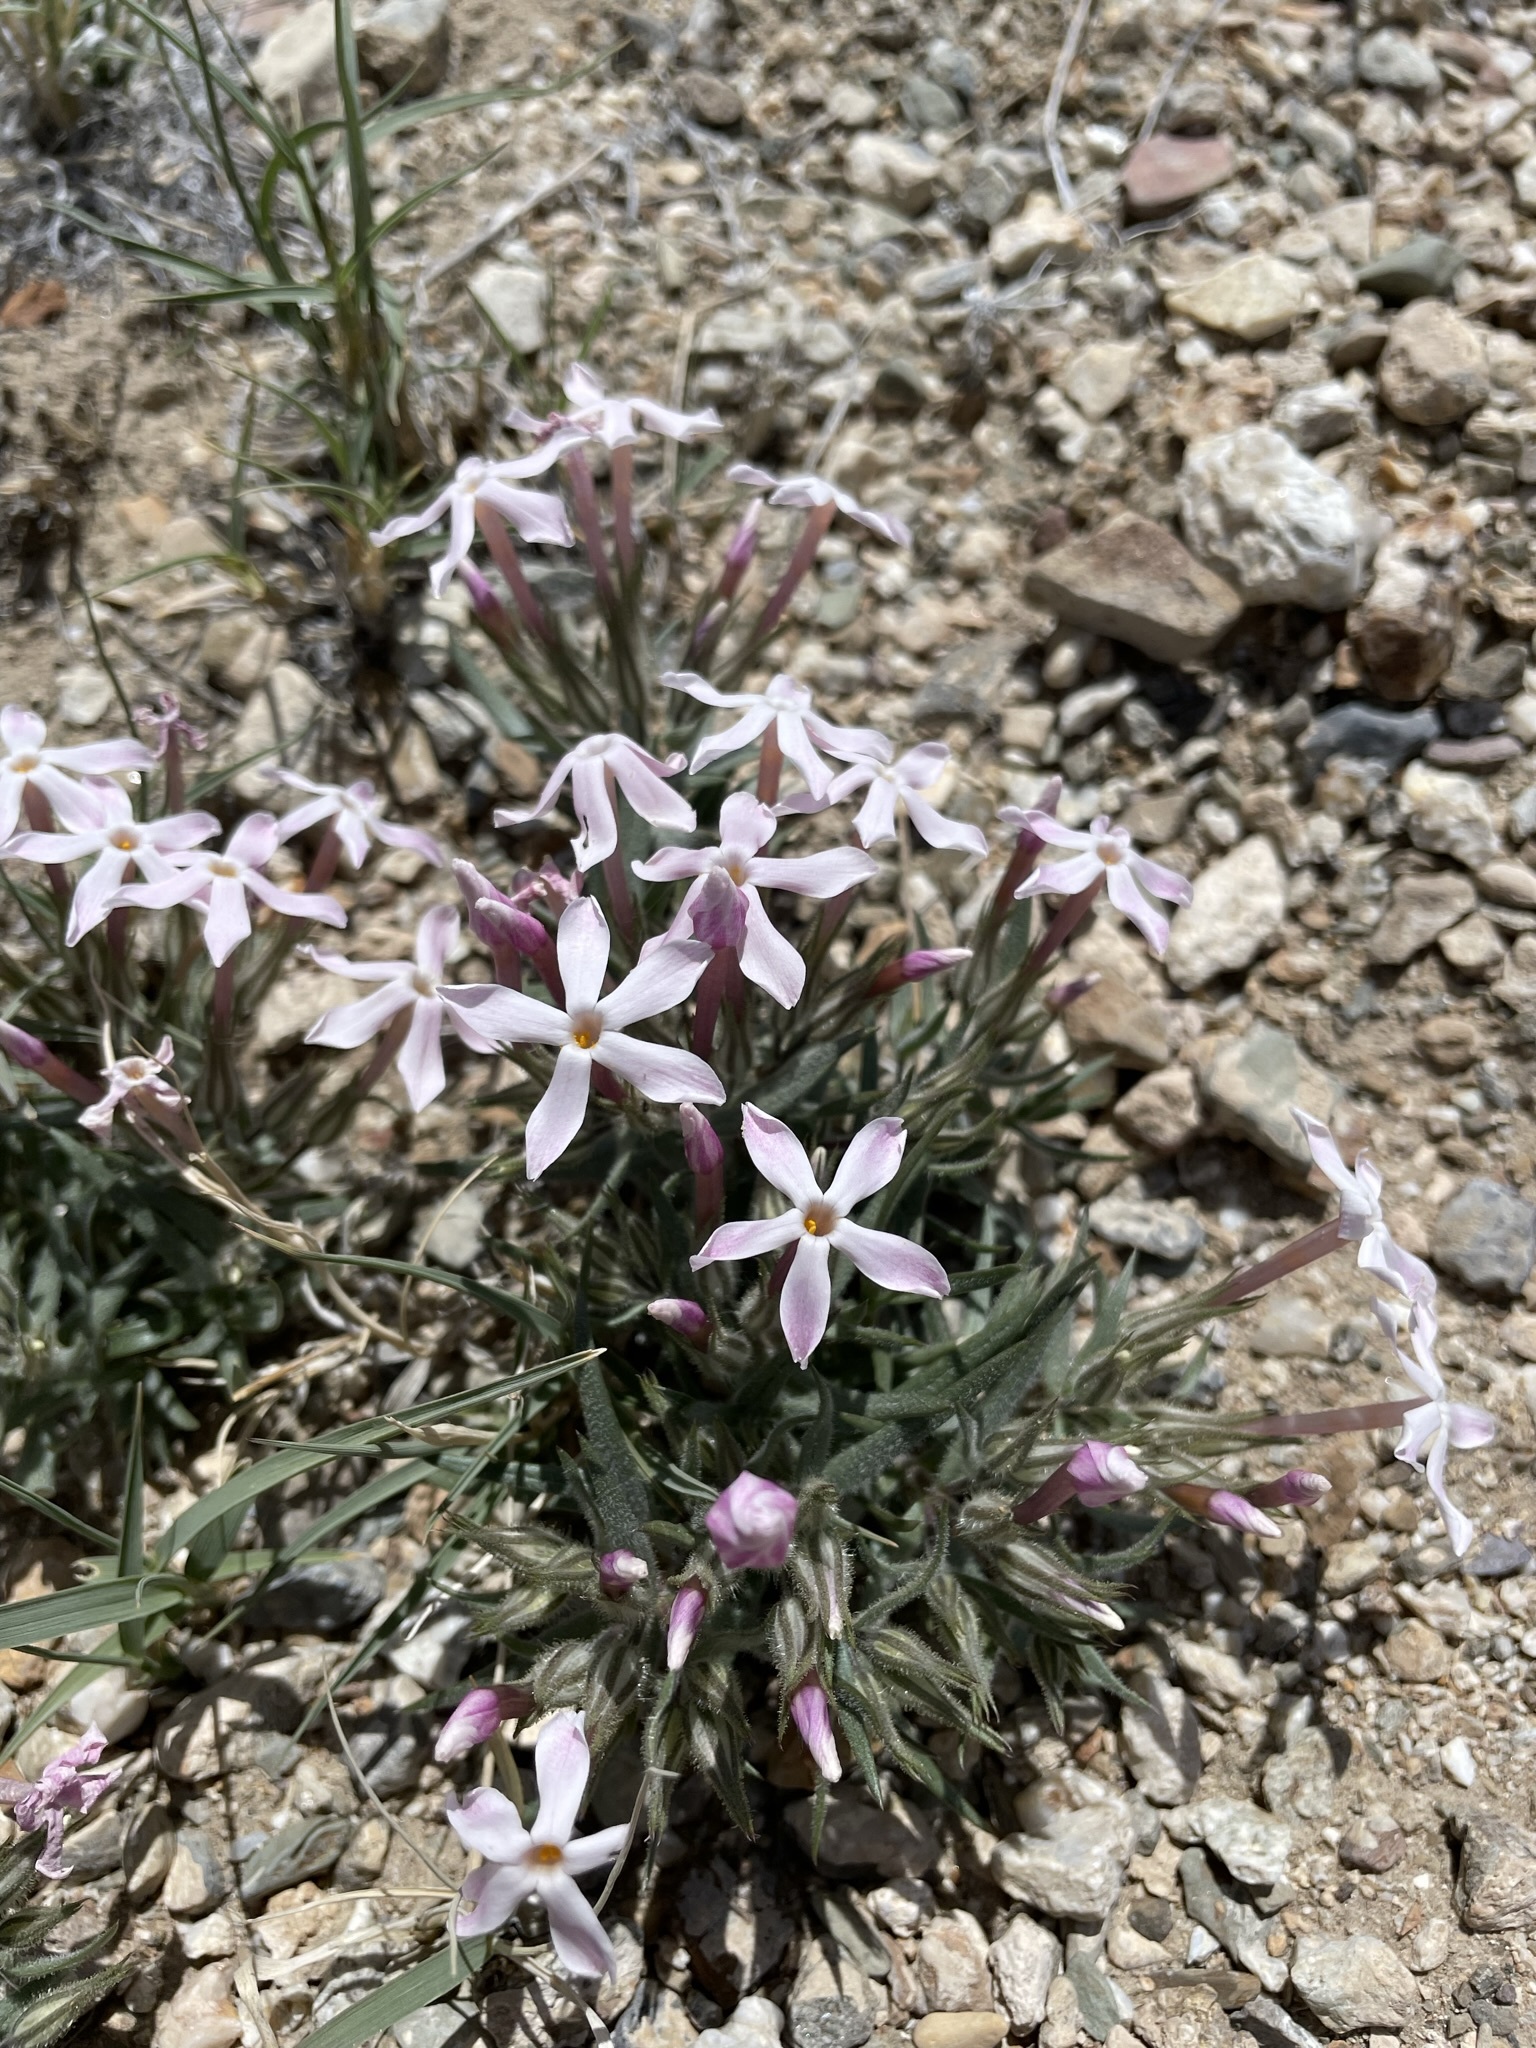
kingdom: Plantae
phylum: Tracheophyta
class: Magnoliopsida
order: Ericales
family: Polemoniaceae
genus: Phlox
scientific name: Phlox longifolia
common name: Longleaf phlox
